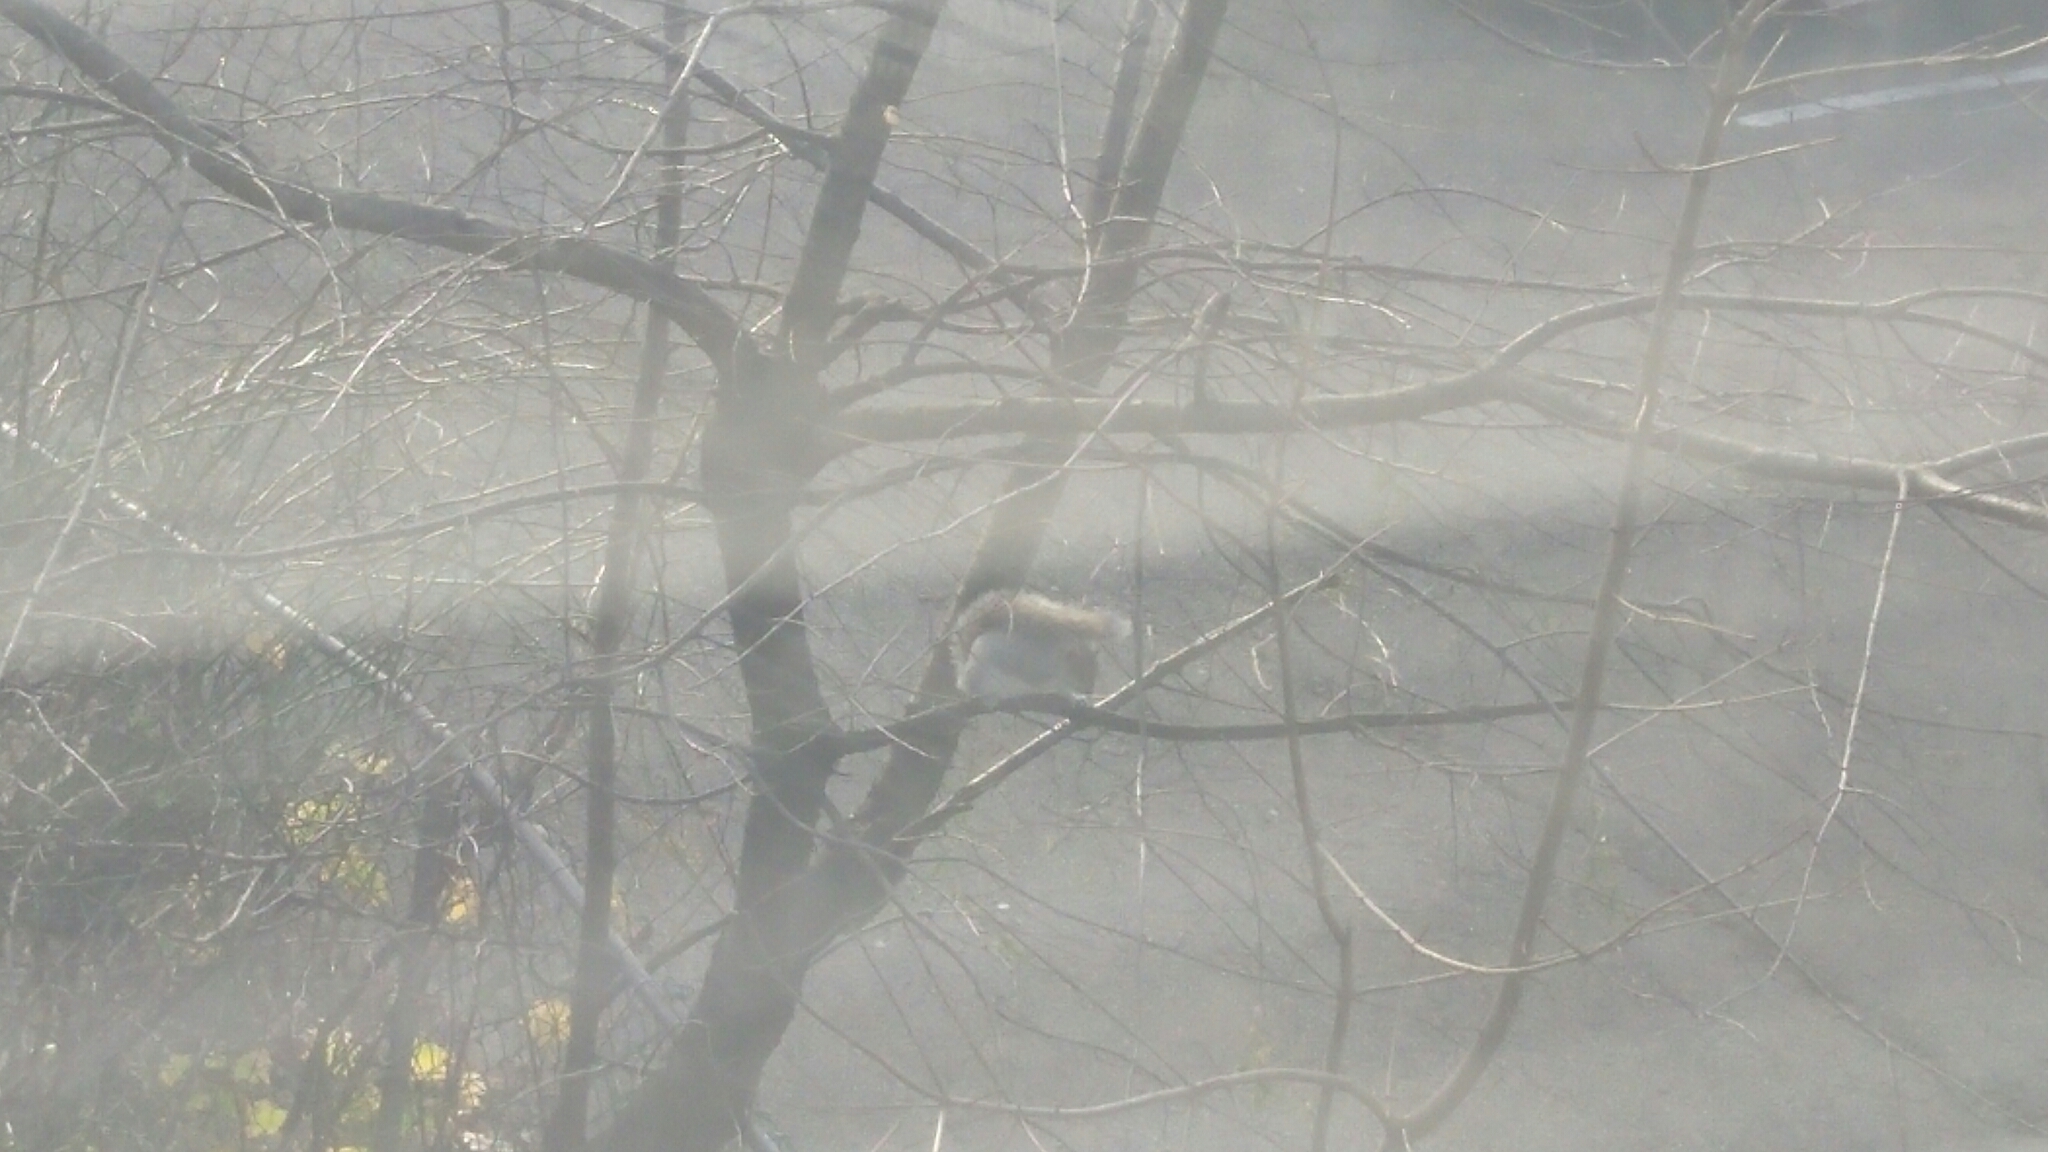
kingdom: Animalia
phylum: Chordata
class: Mammalia
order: Rodentia
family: Sciuridae
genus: Sciurus
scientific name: Sciurus carolinensis
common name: Eastern gray squirrel
